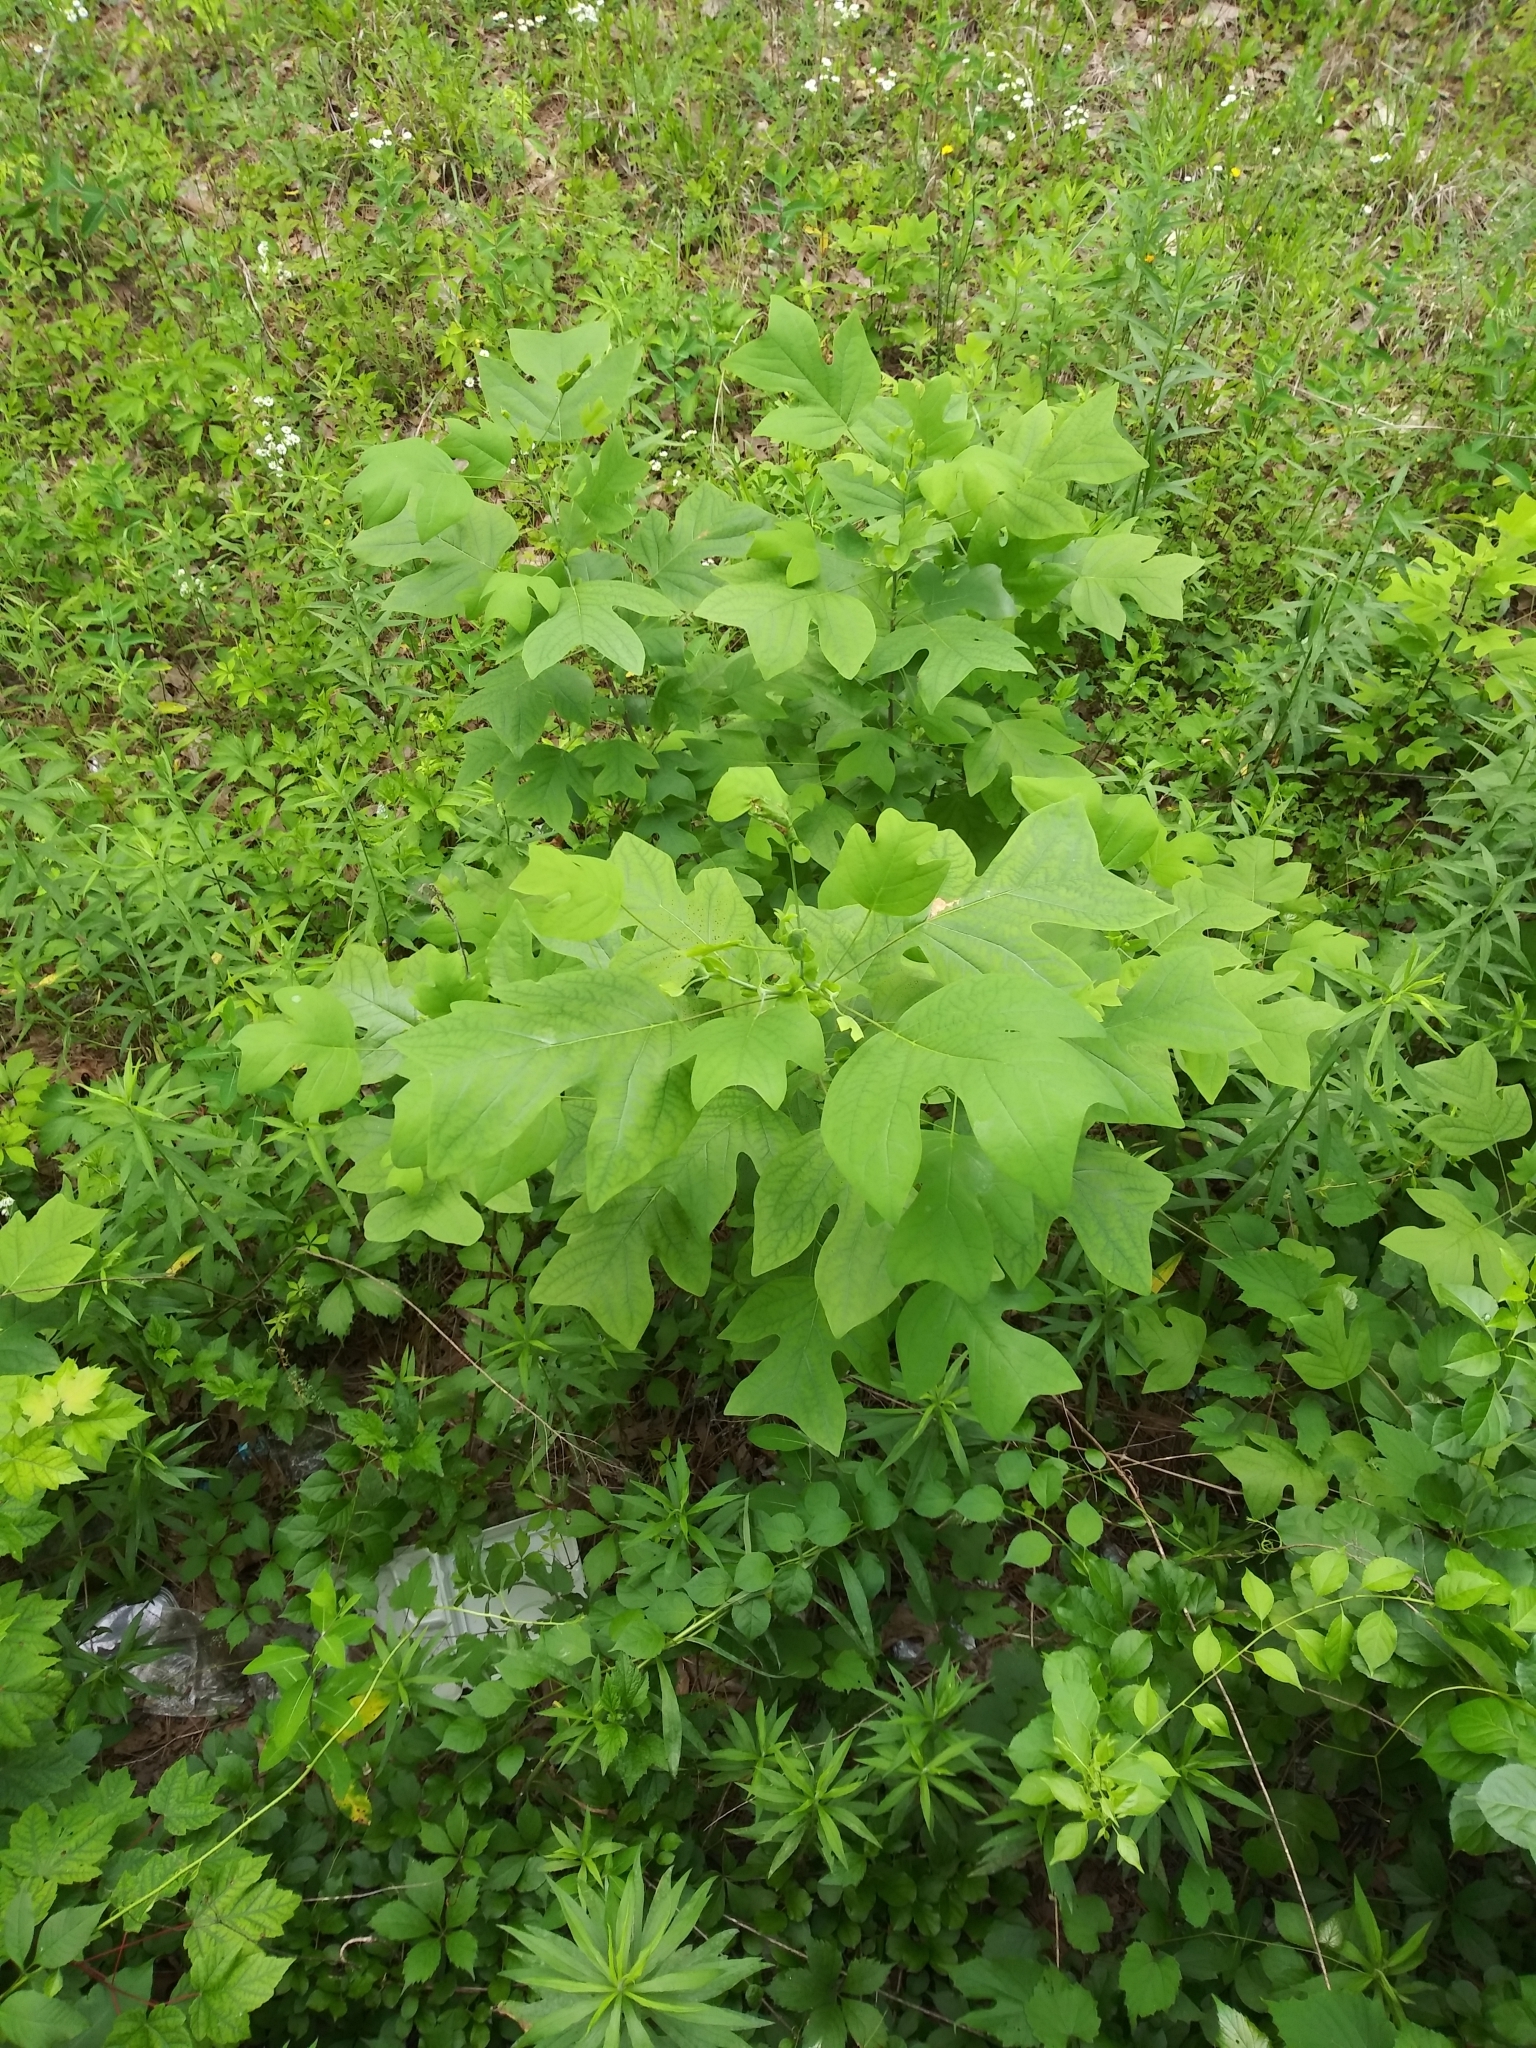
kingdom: Plantae
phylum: Tracheophyta
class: Magnoliopsida
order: Magnoliales
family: Magnoliaceae
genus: Liriodendron
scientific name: Liriodendron tulipifera
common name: Tulip tree
